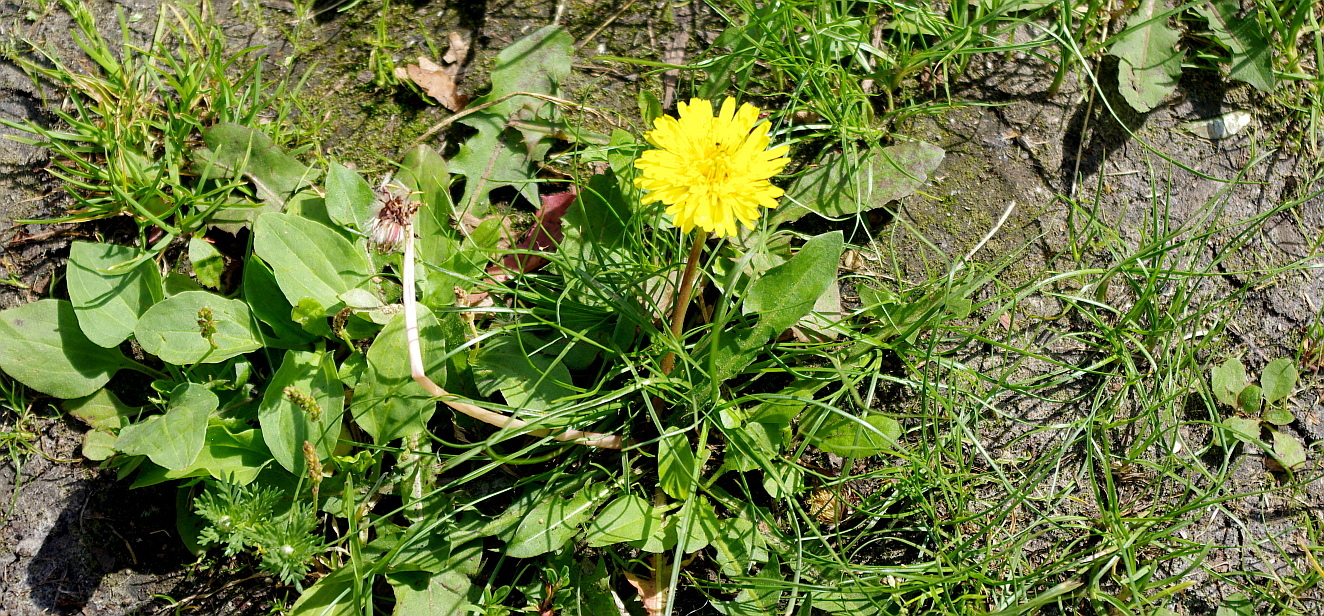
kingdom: Plantae
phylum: Tracheophyta
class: Magnoliopsida
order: Lamiales
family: Plantaginaceae
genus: Plantago
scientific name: Plantago major
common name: Common plantain
